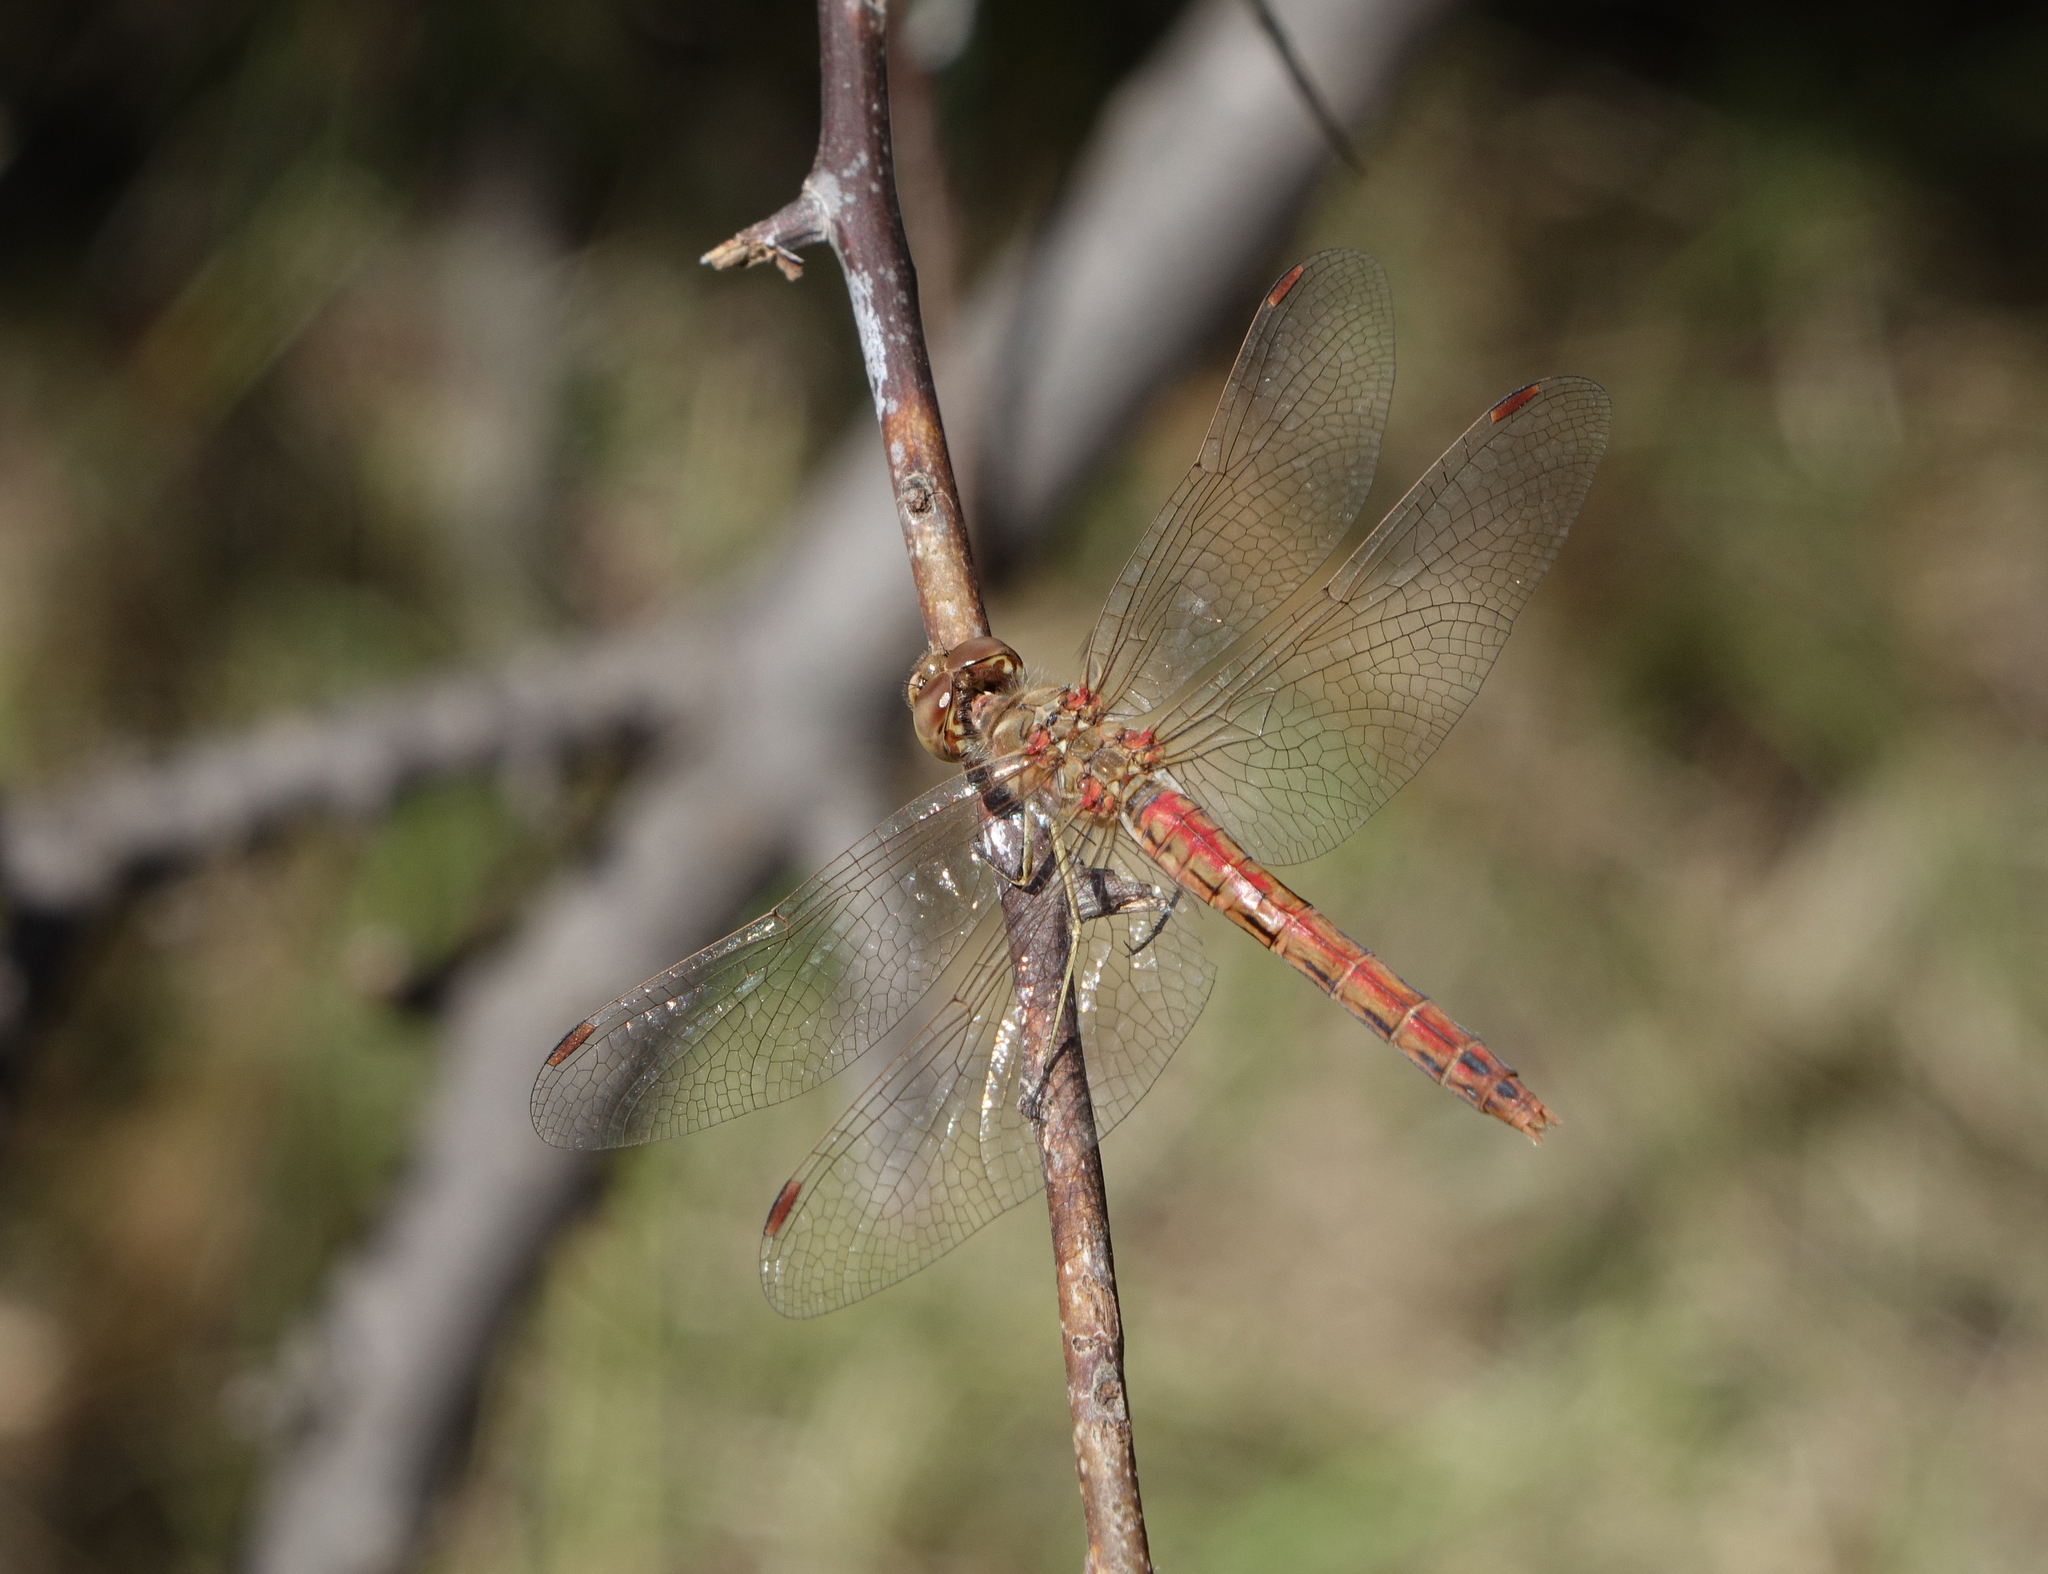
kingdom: Animalia
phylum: Arthropoda
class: Insecta
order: Odonata
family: Libellulidae
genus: Sympetrum
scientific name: Sympetrum vulgatum
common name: Vagrant darter
